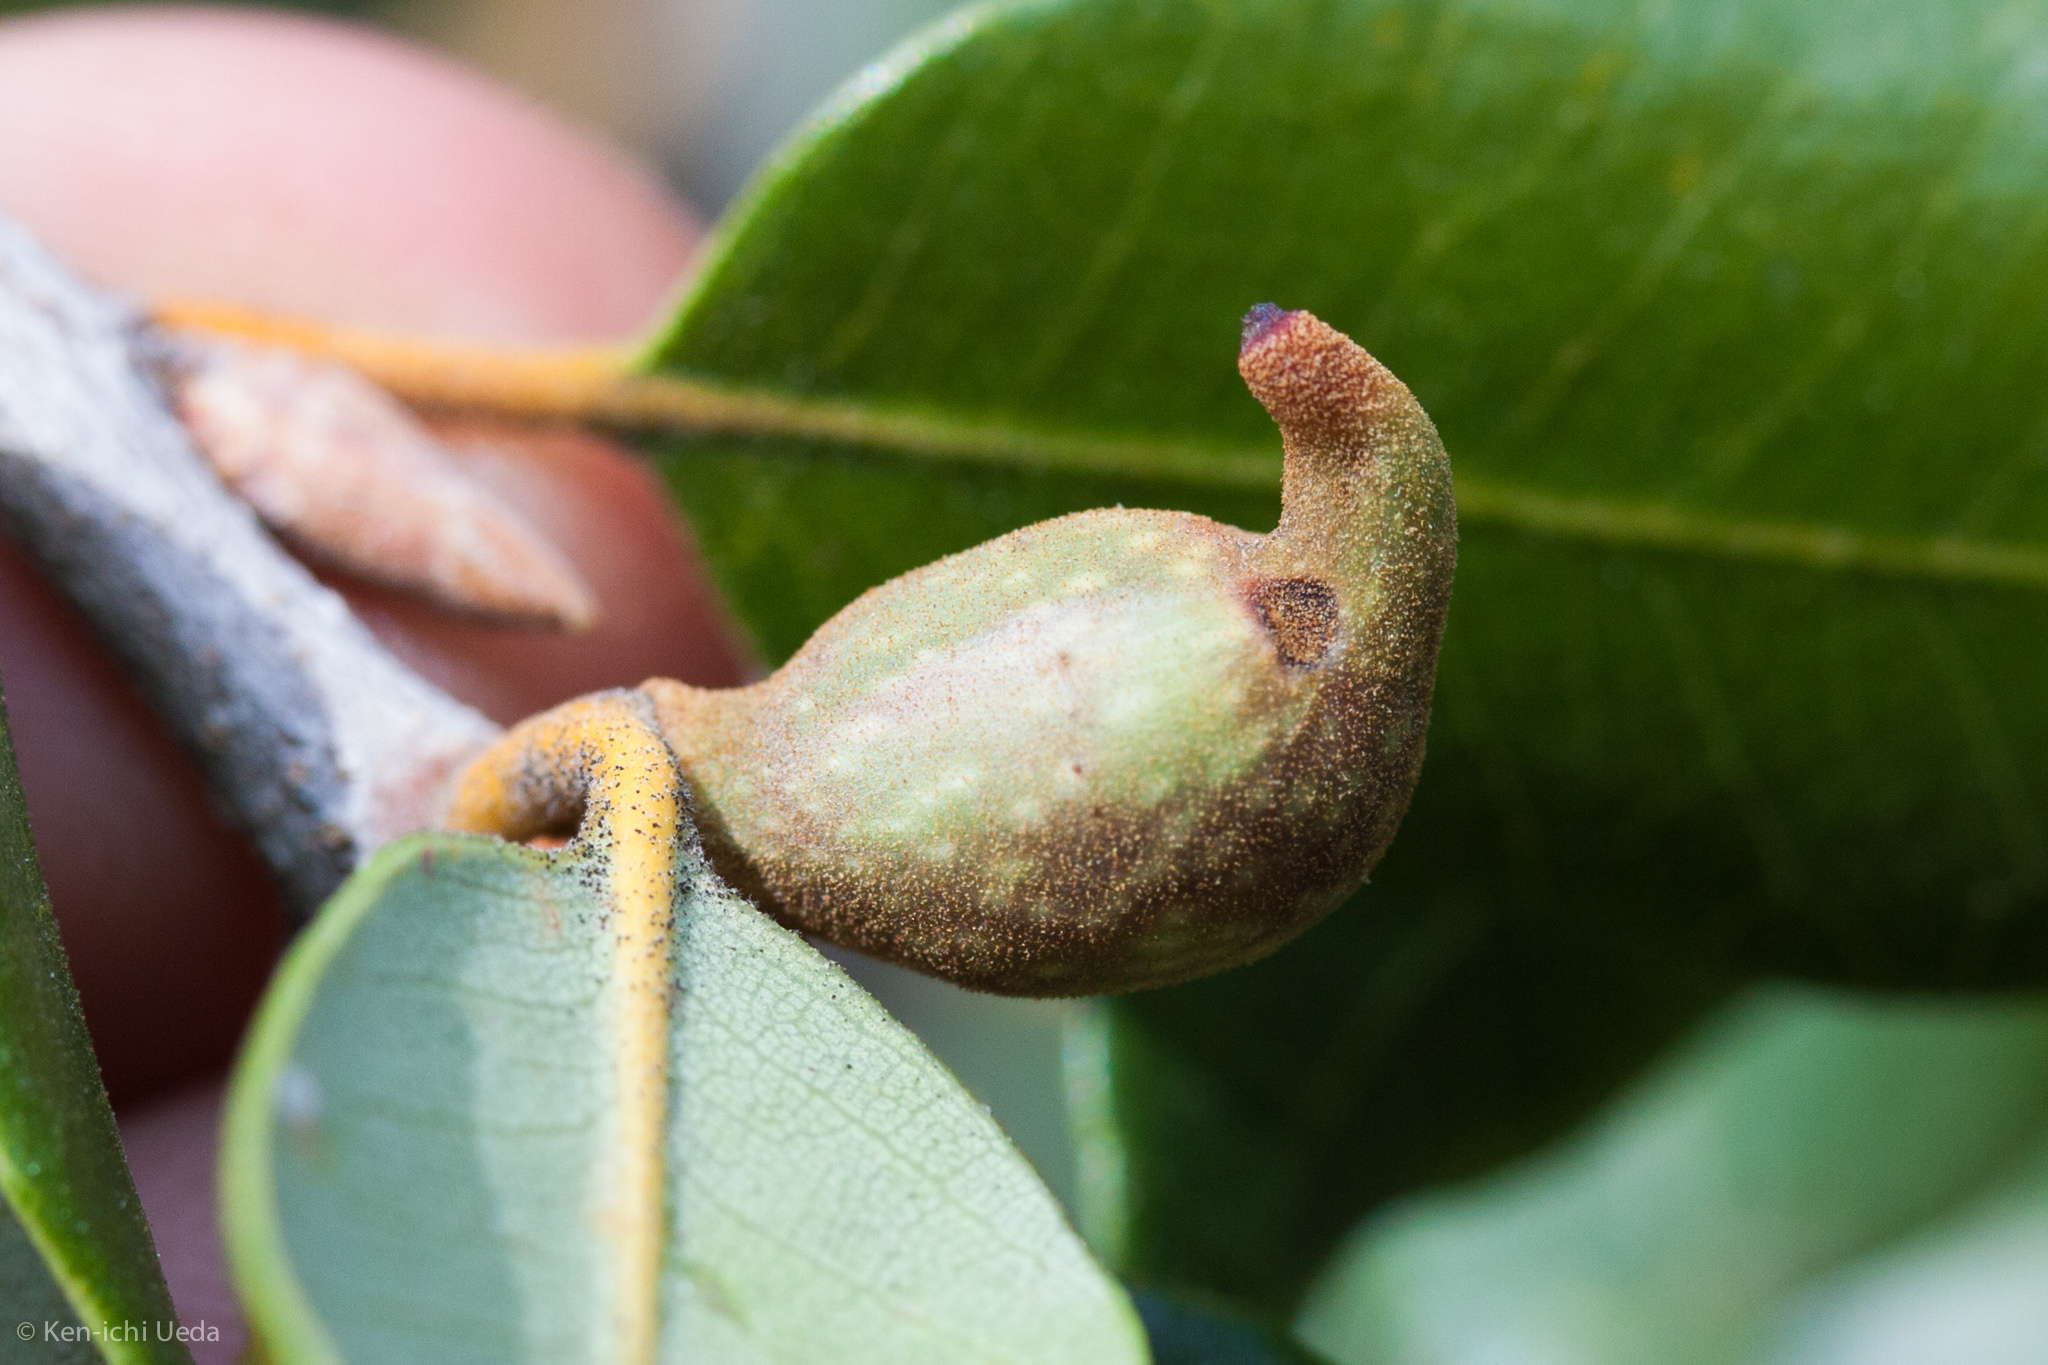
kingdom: Animalia
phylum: Arthropoda
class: Insecta
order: Hymenoptera
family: Cynipidae
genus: Heteroecus
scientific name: Heteroecus pacificus
